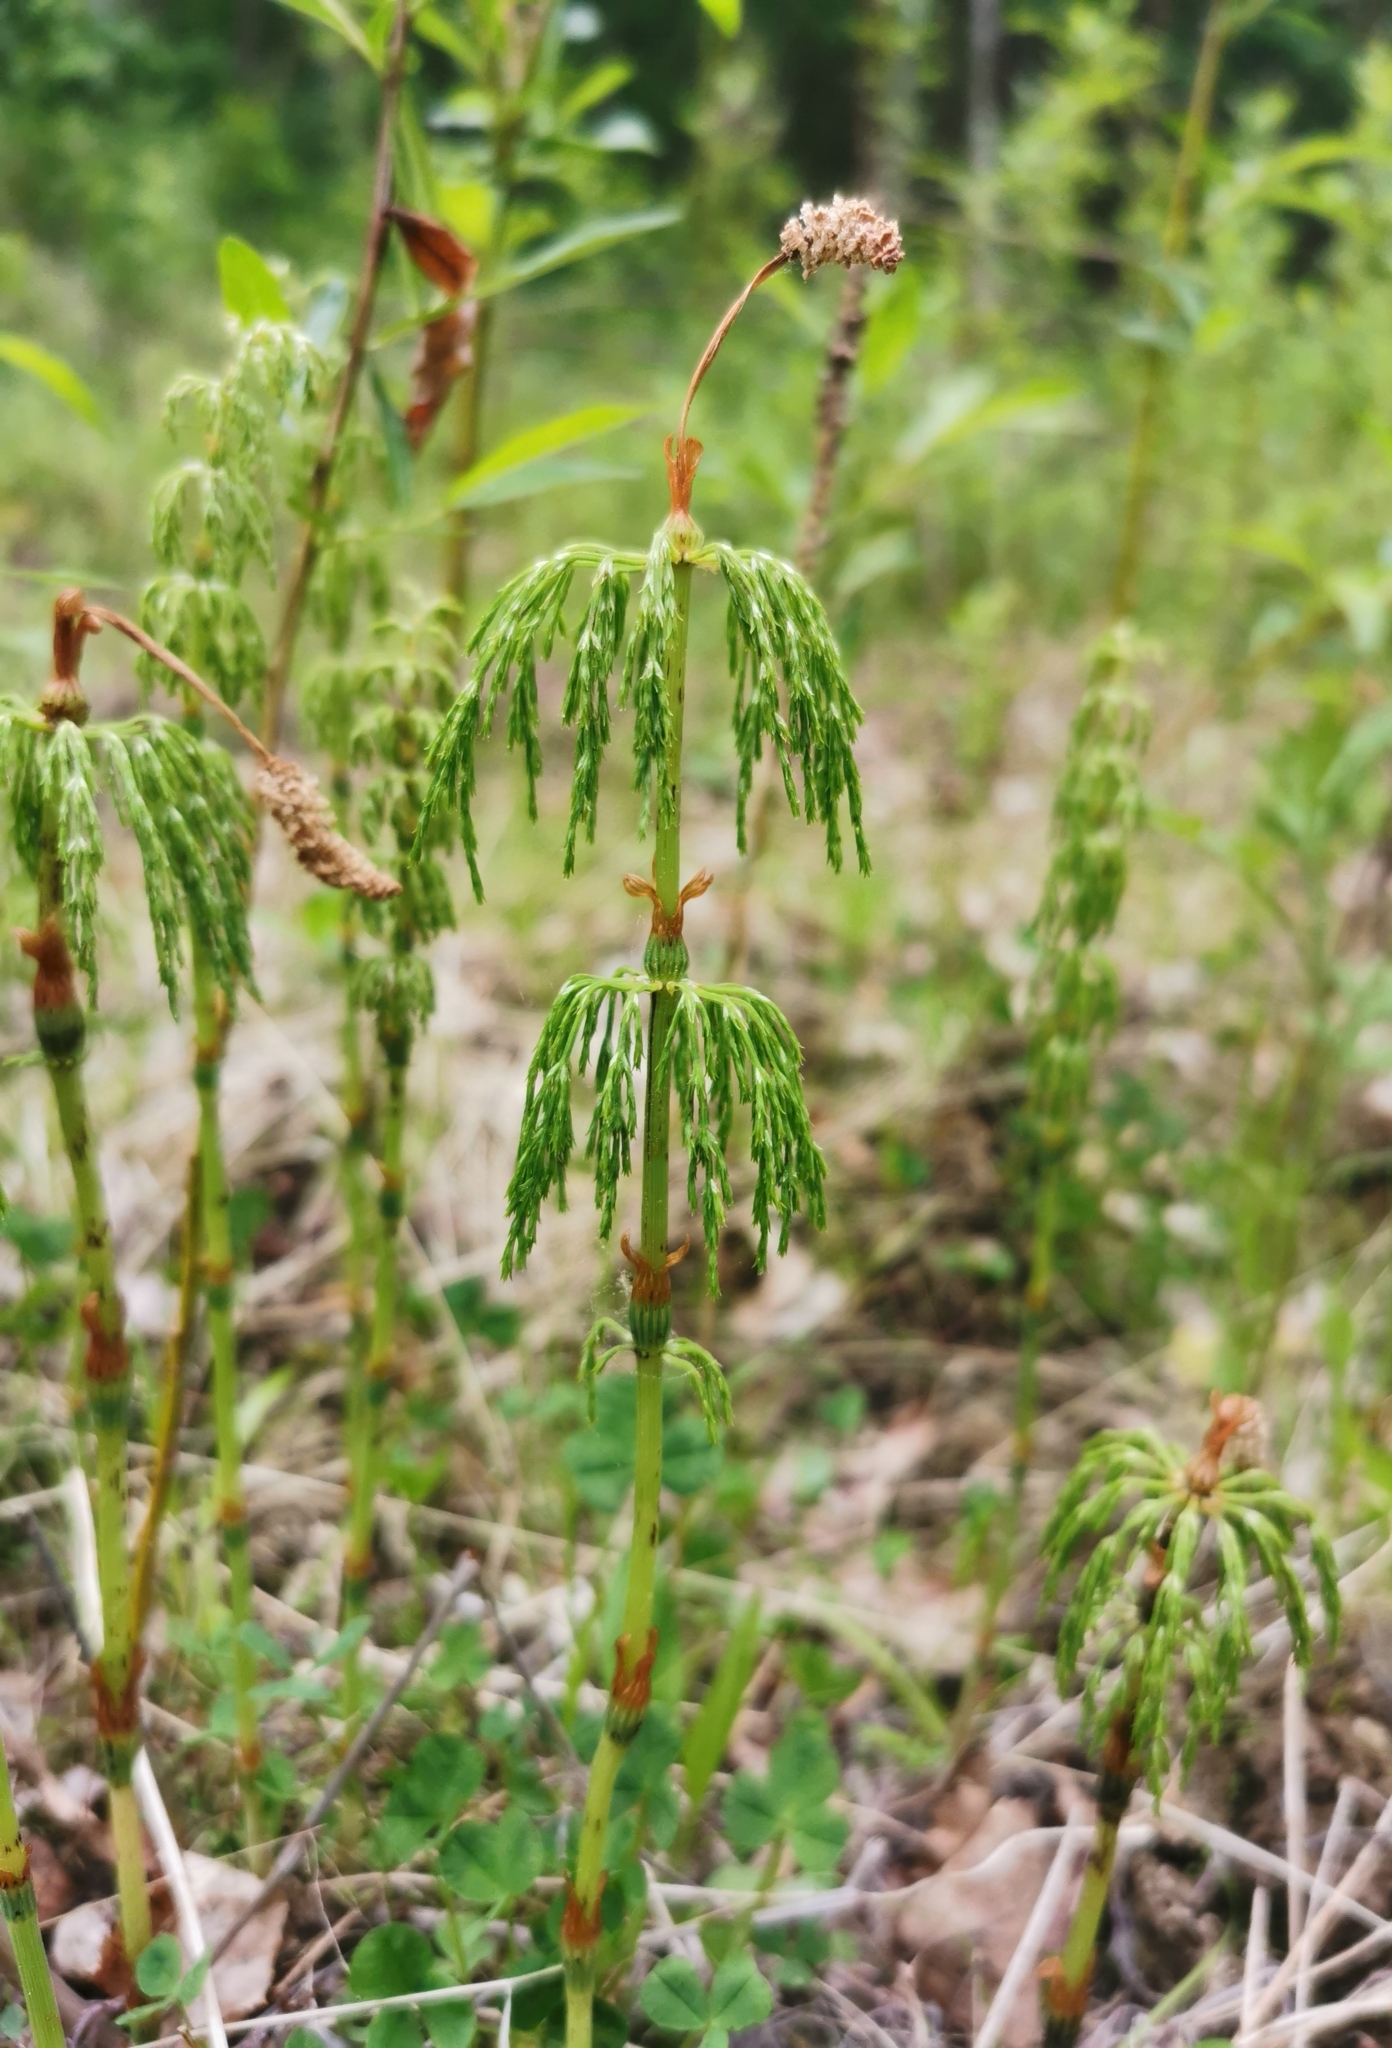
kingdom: Plantae
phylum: Tracheophyta
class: Polypodiopsida
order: Equisetales
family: Equisetaceae
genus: Equisetum
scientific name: Equisetum sylvaticum
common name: Wood horsetail
